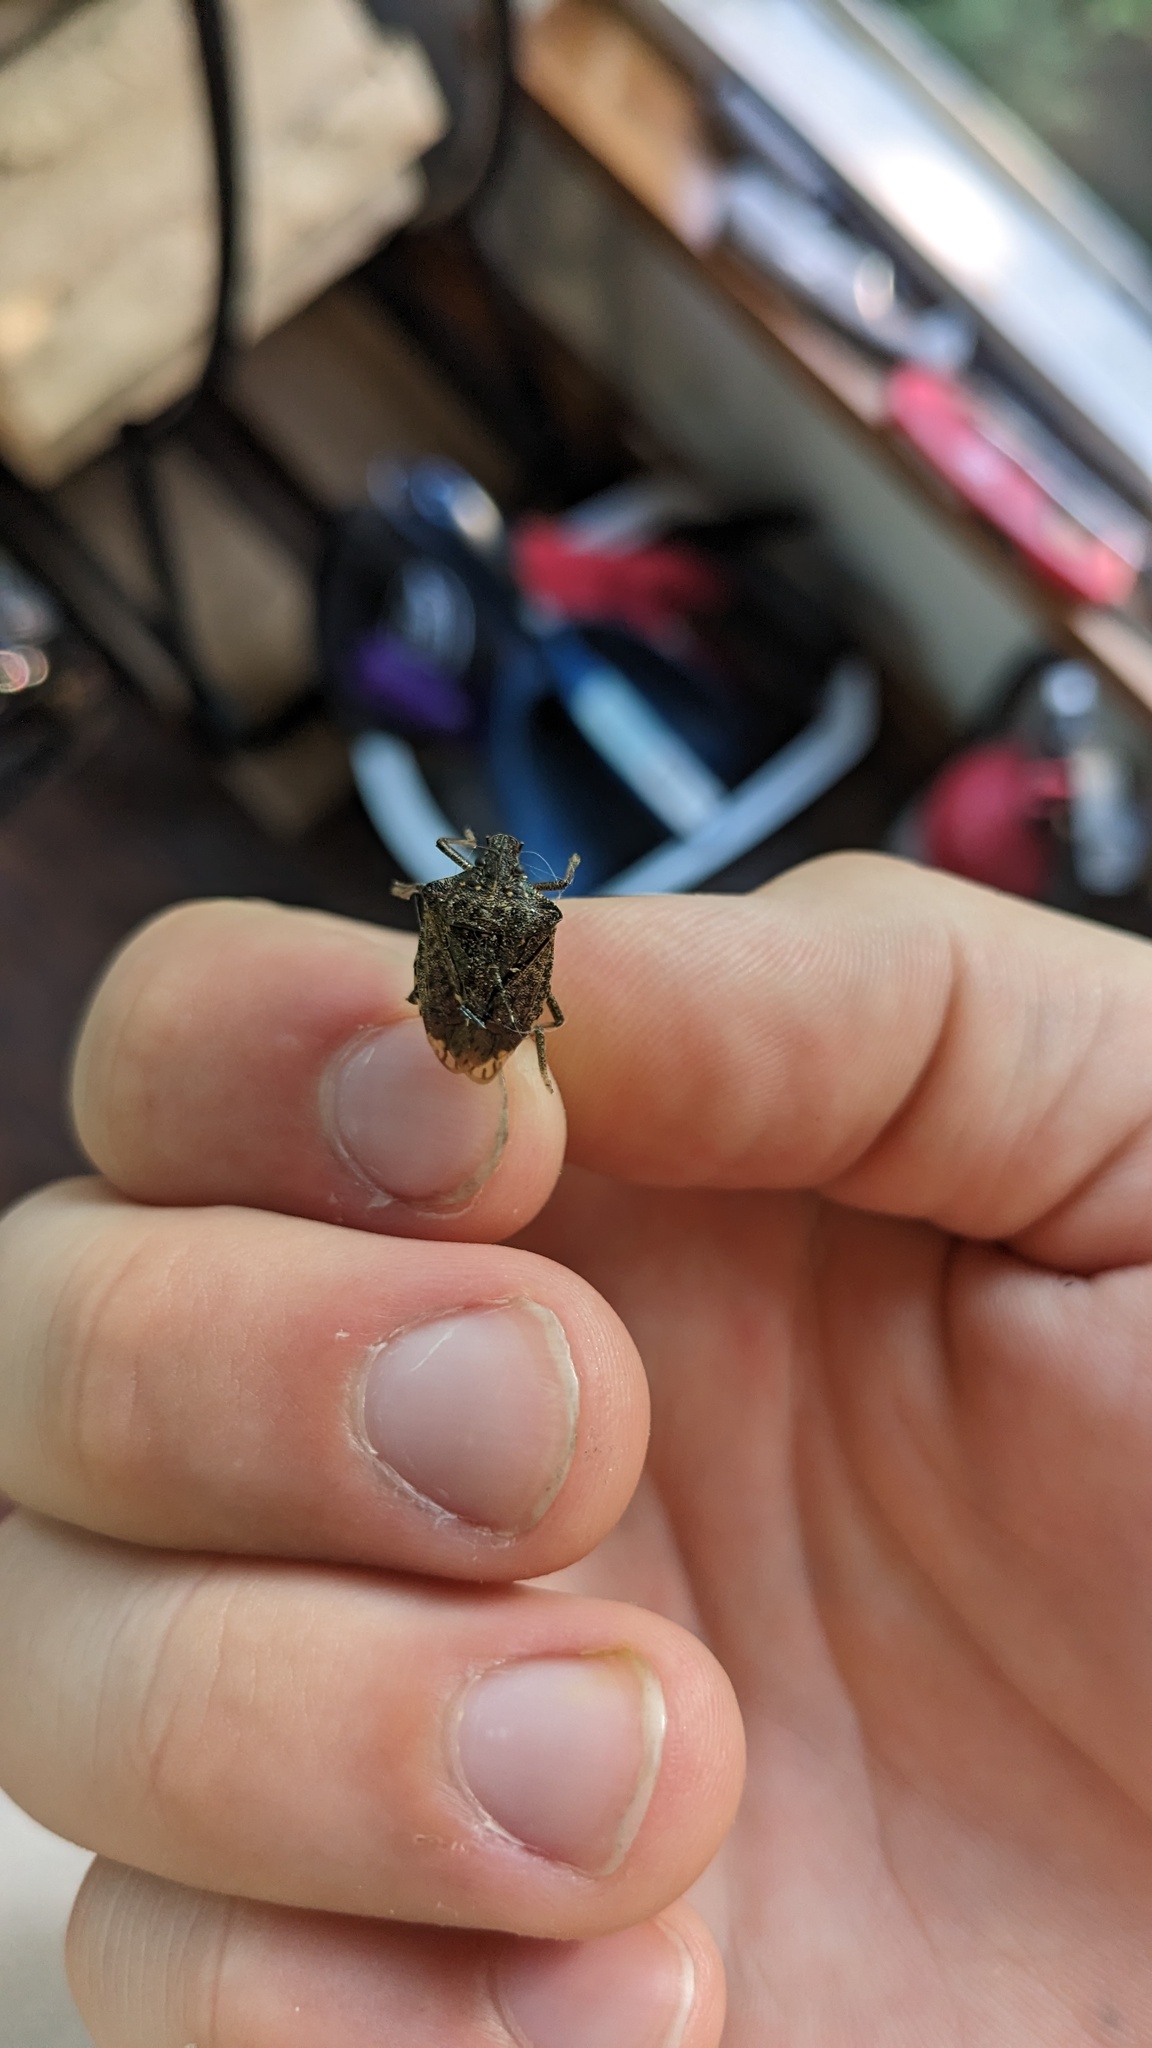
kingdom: Animalia
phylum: Arthropoda
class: Insecta
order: Hemiptera
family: Pentatomidae
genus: Halyomorpha
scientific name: Halyomorpha halys
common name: Brown marmorated stink bug
